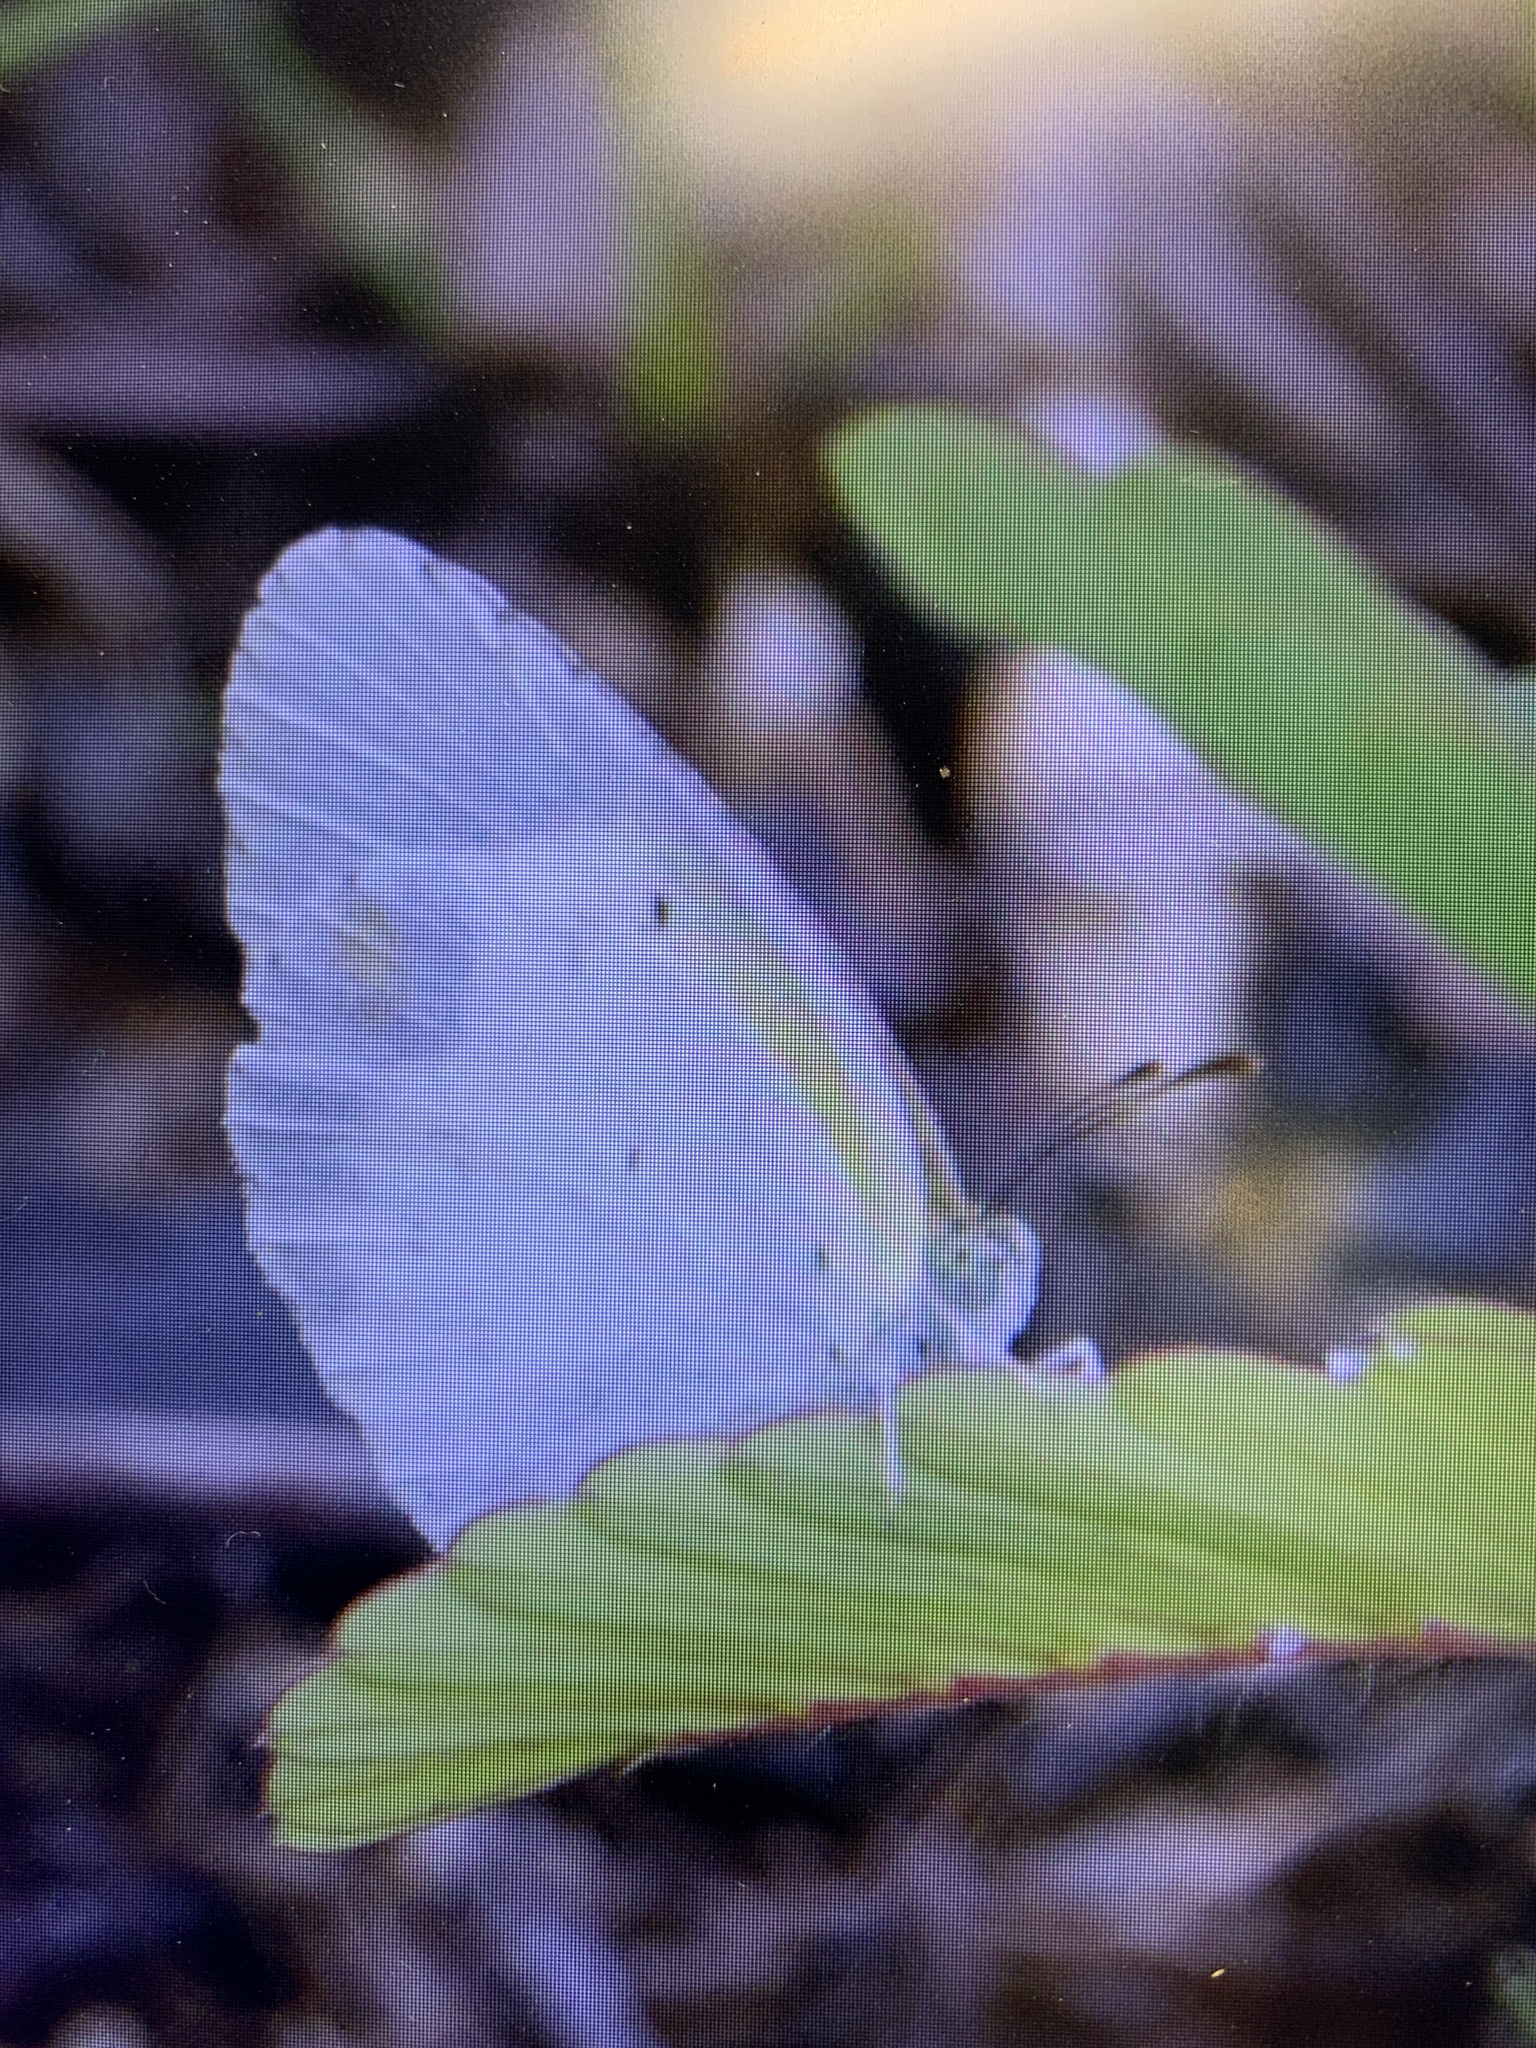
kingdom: Animalia
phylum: Arthropoda
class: Insecta
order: Lepidoptera
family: Pieridae
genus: Pyrisitia
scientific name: Pyrisitia lisa
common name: Little yellow
